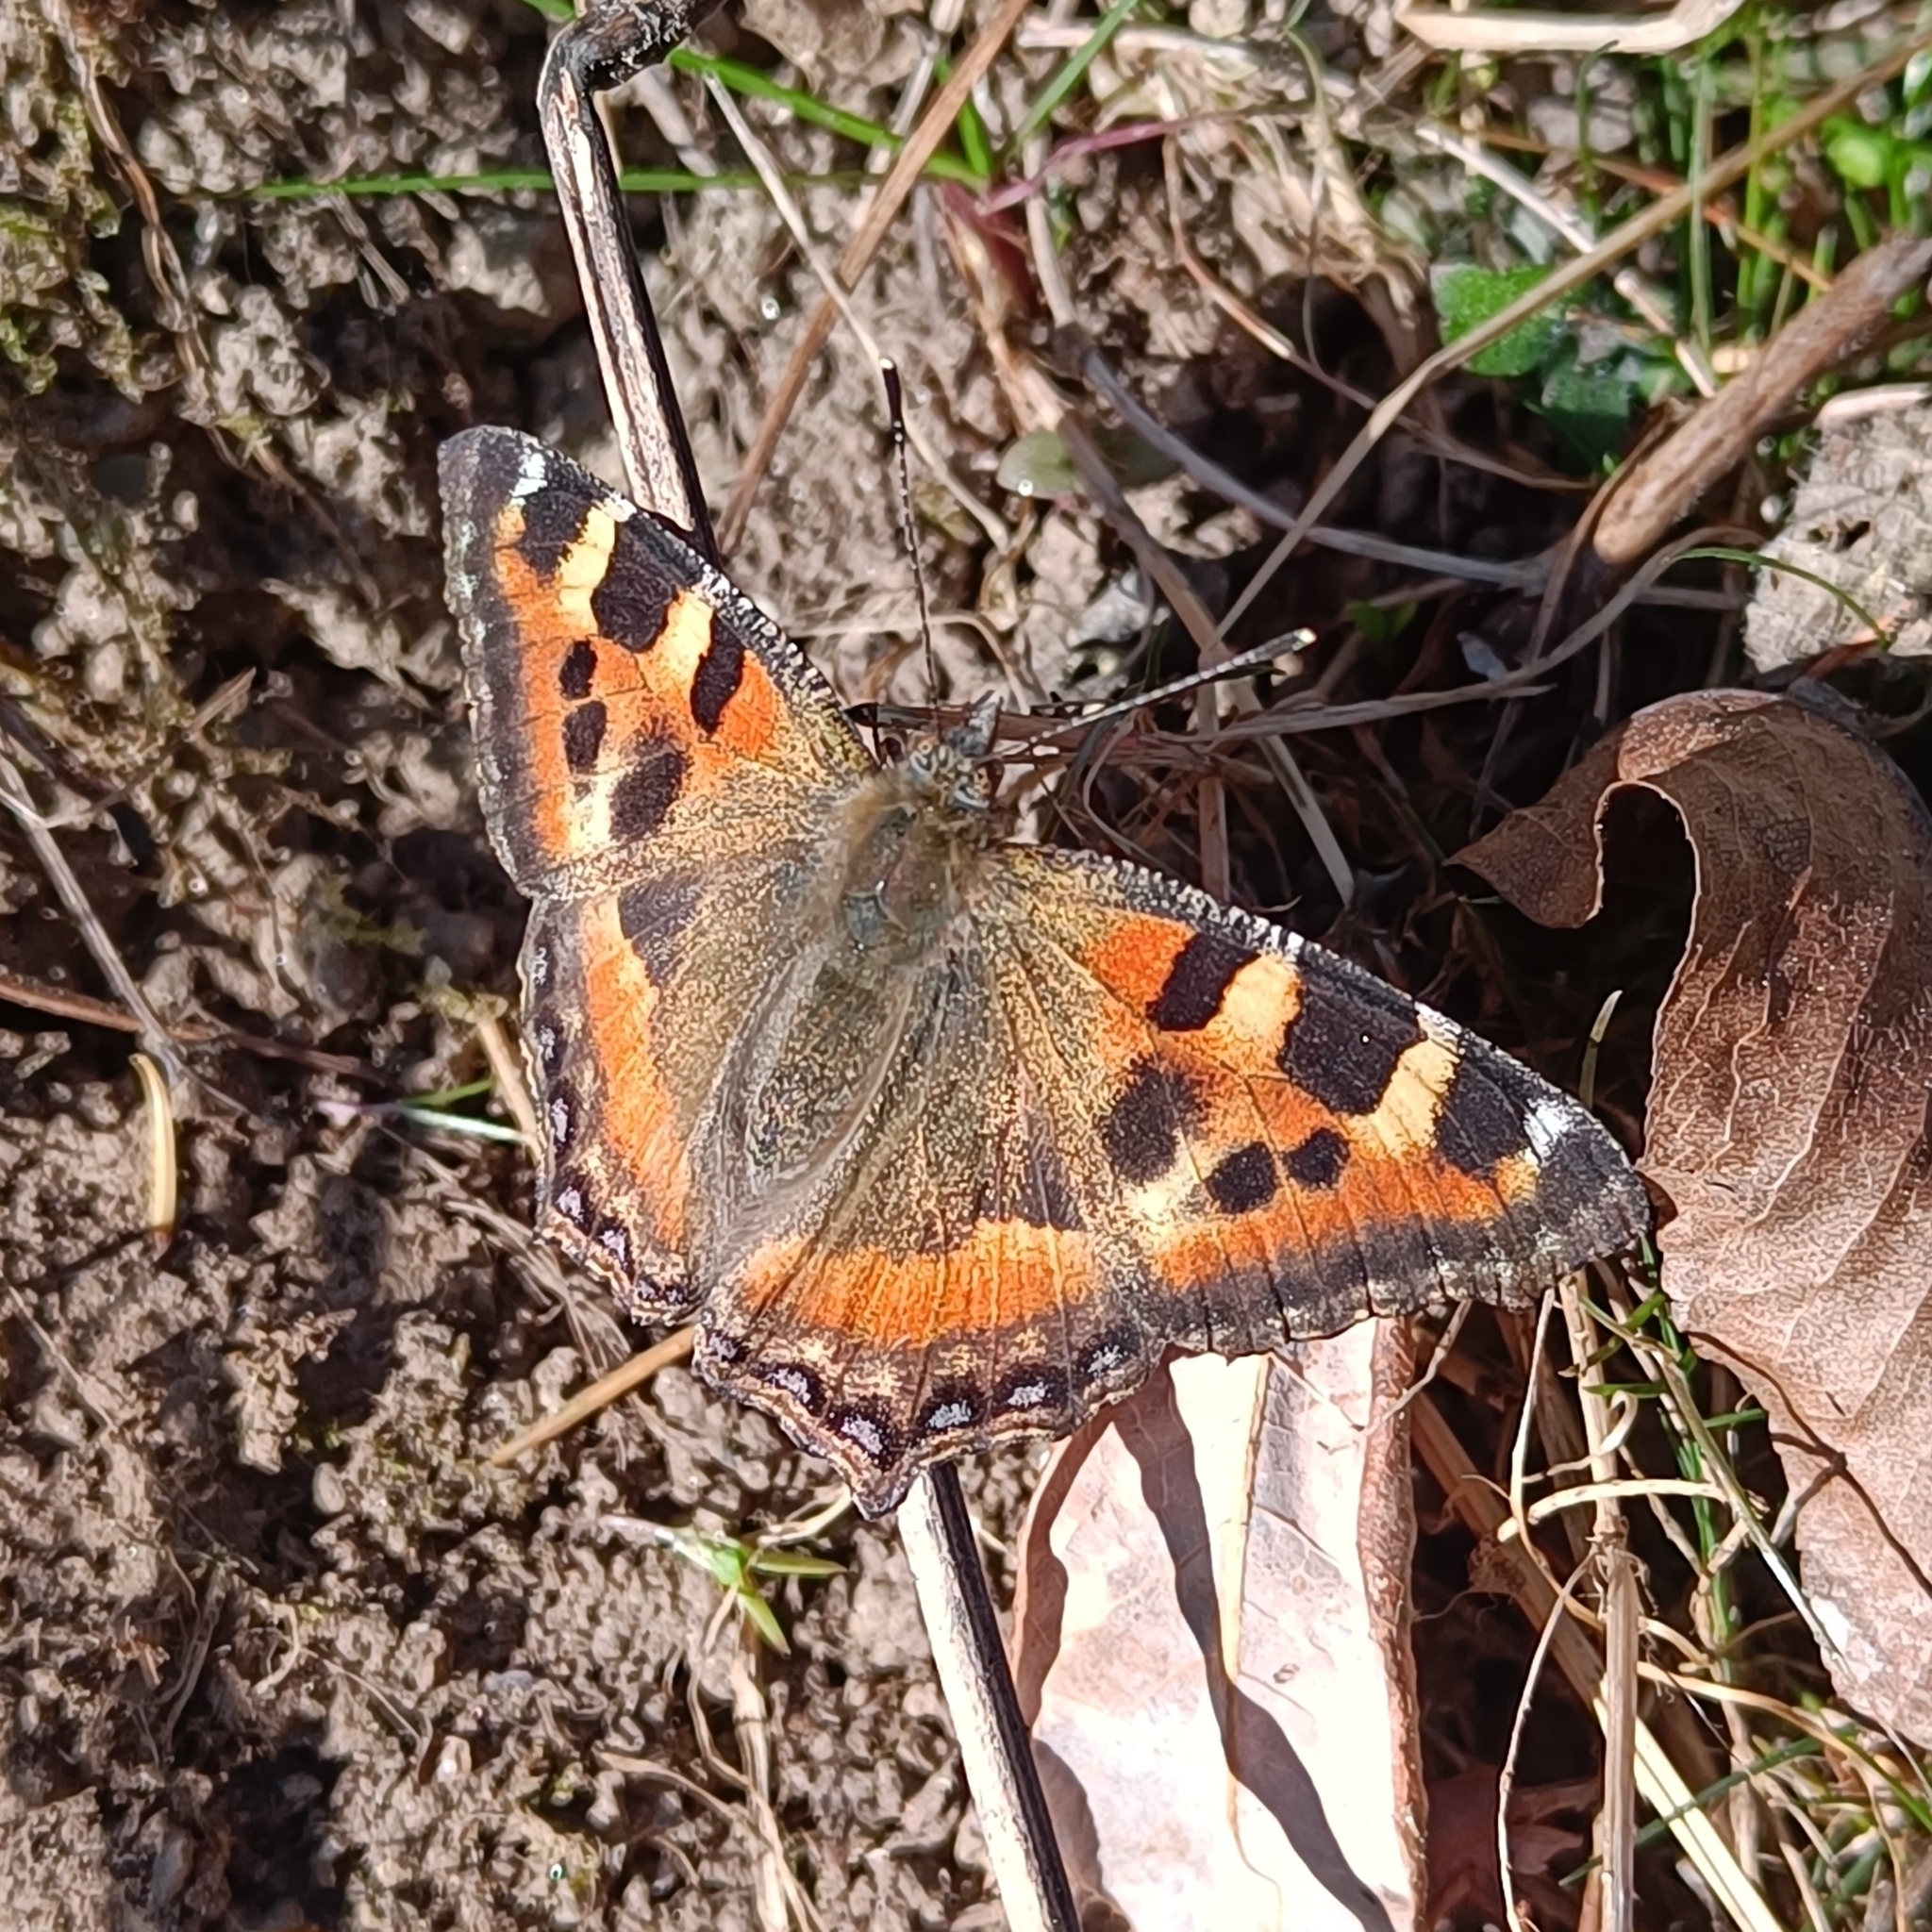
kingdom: Animalia
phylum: Arthropoda
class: Insecta
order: Lepidoptera
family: Nymphalidae
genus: Aglais
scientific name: Aglais caschmirensis
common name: Indian tortoiseshell
